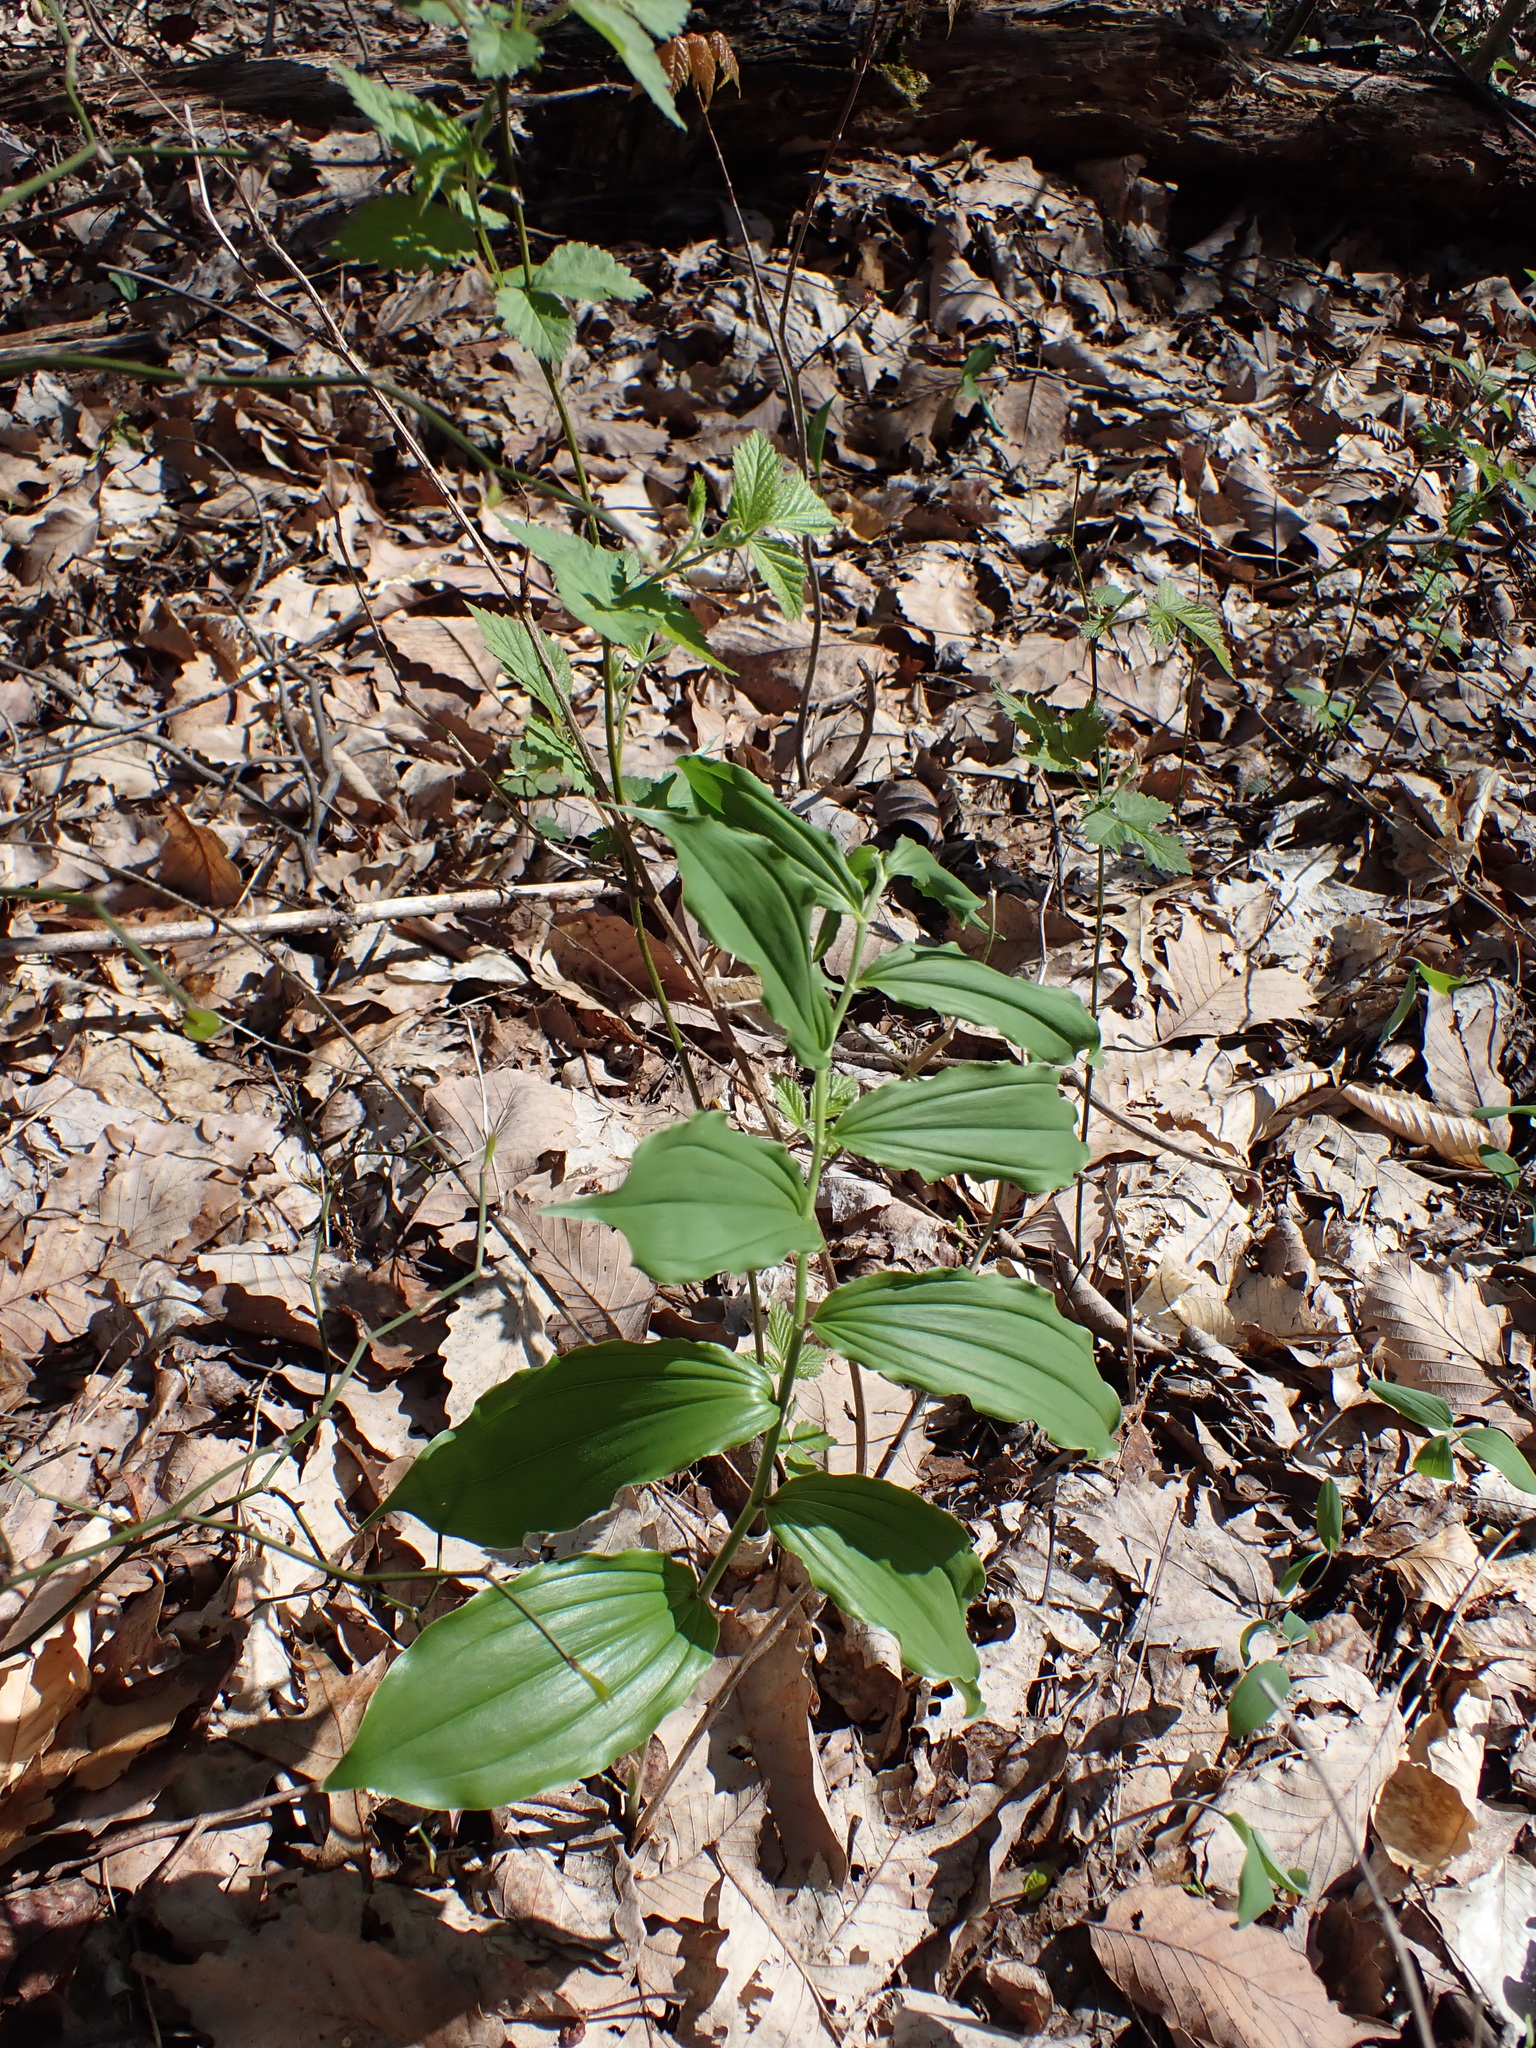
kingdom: Plantae
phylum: Tracheophyta
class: Liliopsida
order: Asparagales
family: Asparagaceae
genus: Maianthemum
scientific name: Maianthemum racemosum
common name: False spikenard
